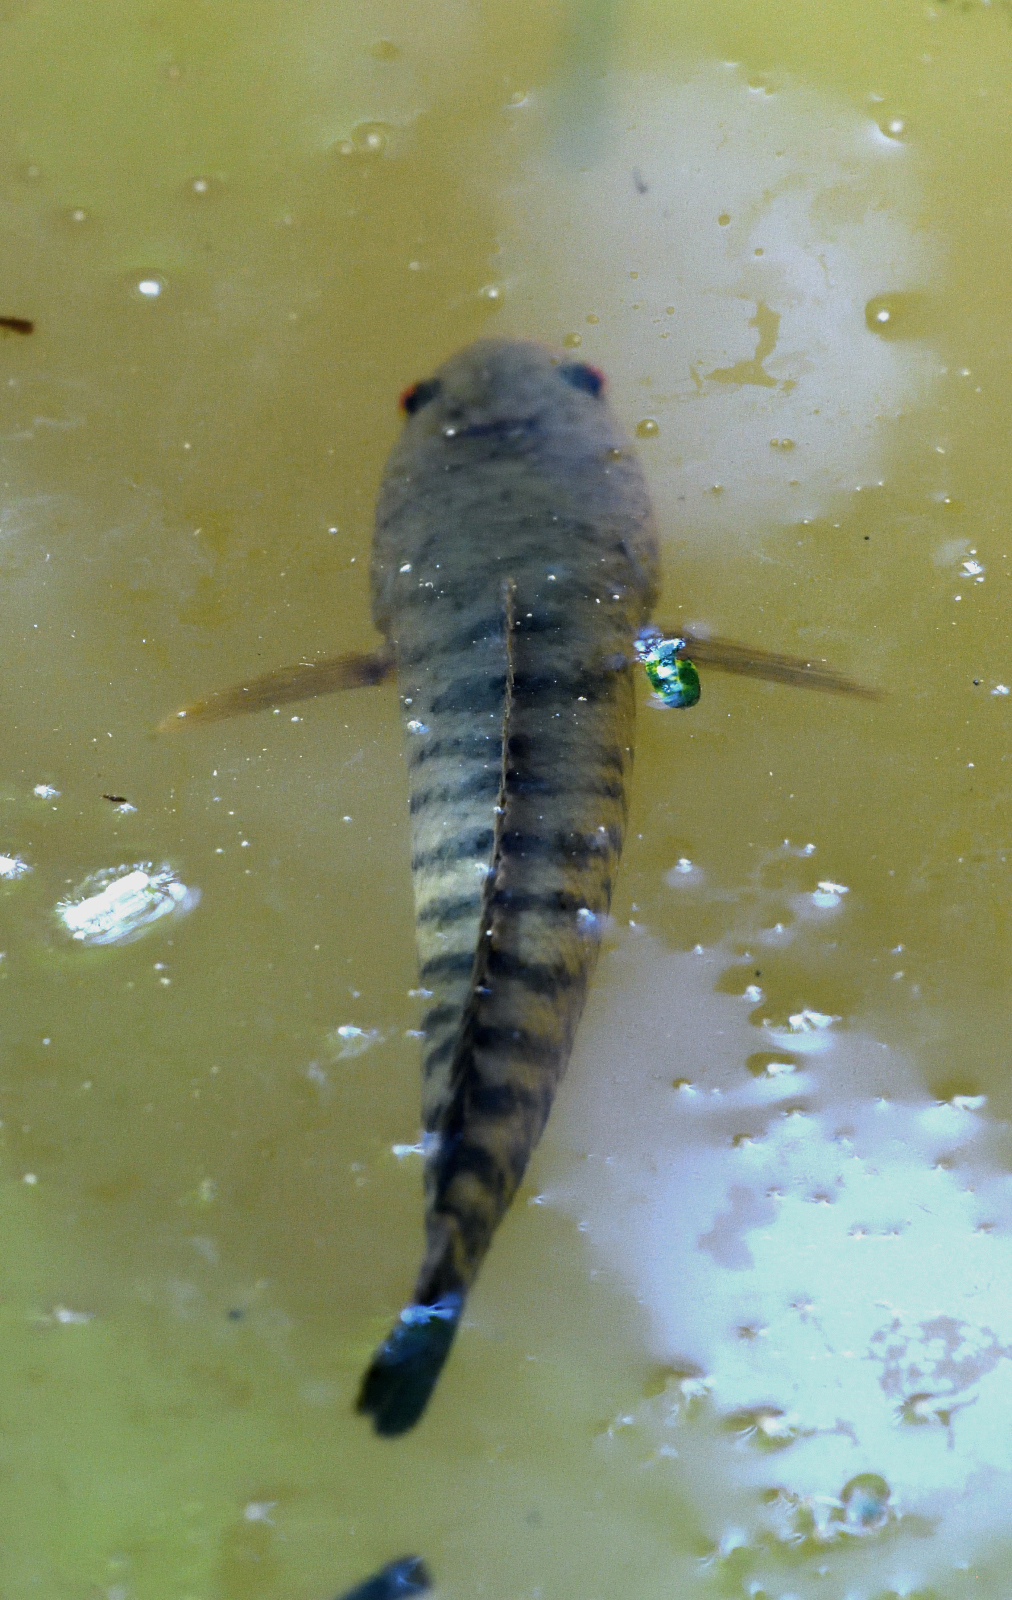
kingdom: Animalia
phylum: Chordata
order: Perciformes
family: Channidae
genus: Channa
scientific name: Channa striata
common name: Striped snakehead
